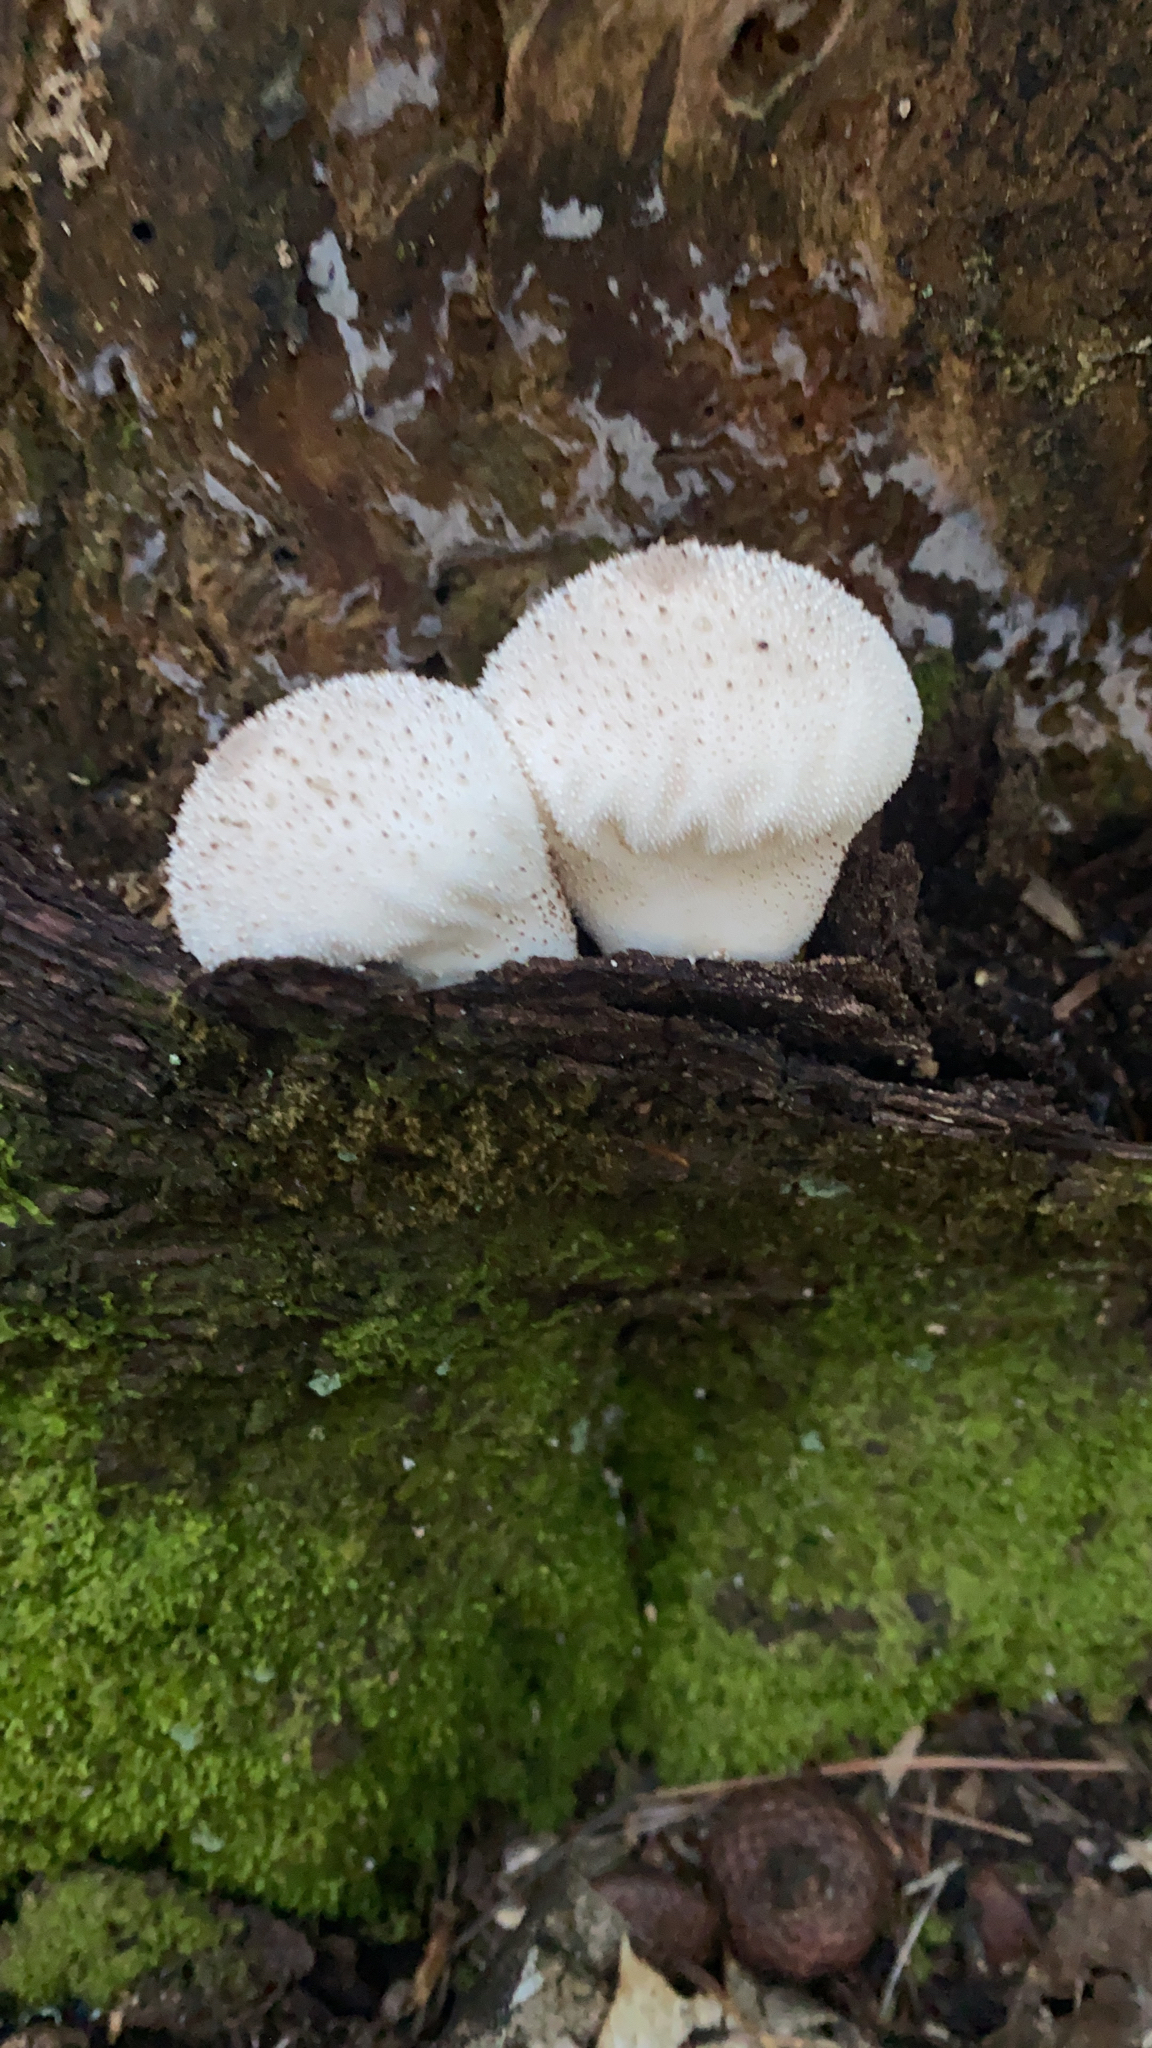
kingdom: Fungi
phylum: Basidiomycota
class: Agaricomycetes
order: Agaricales
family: Lycoperdaceae
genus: Lycoperdon
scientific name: Lycoperdon perlatum
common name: Common puffball
